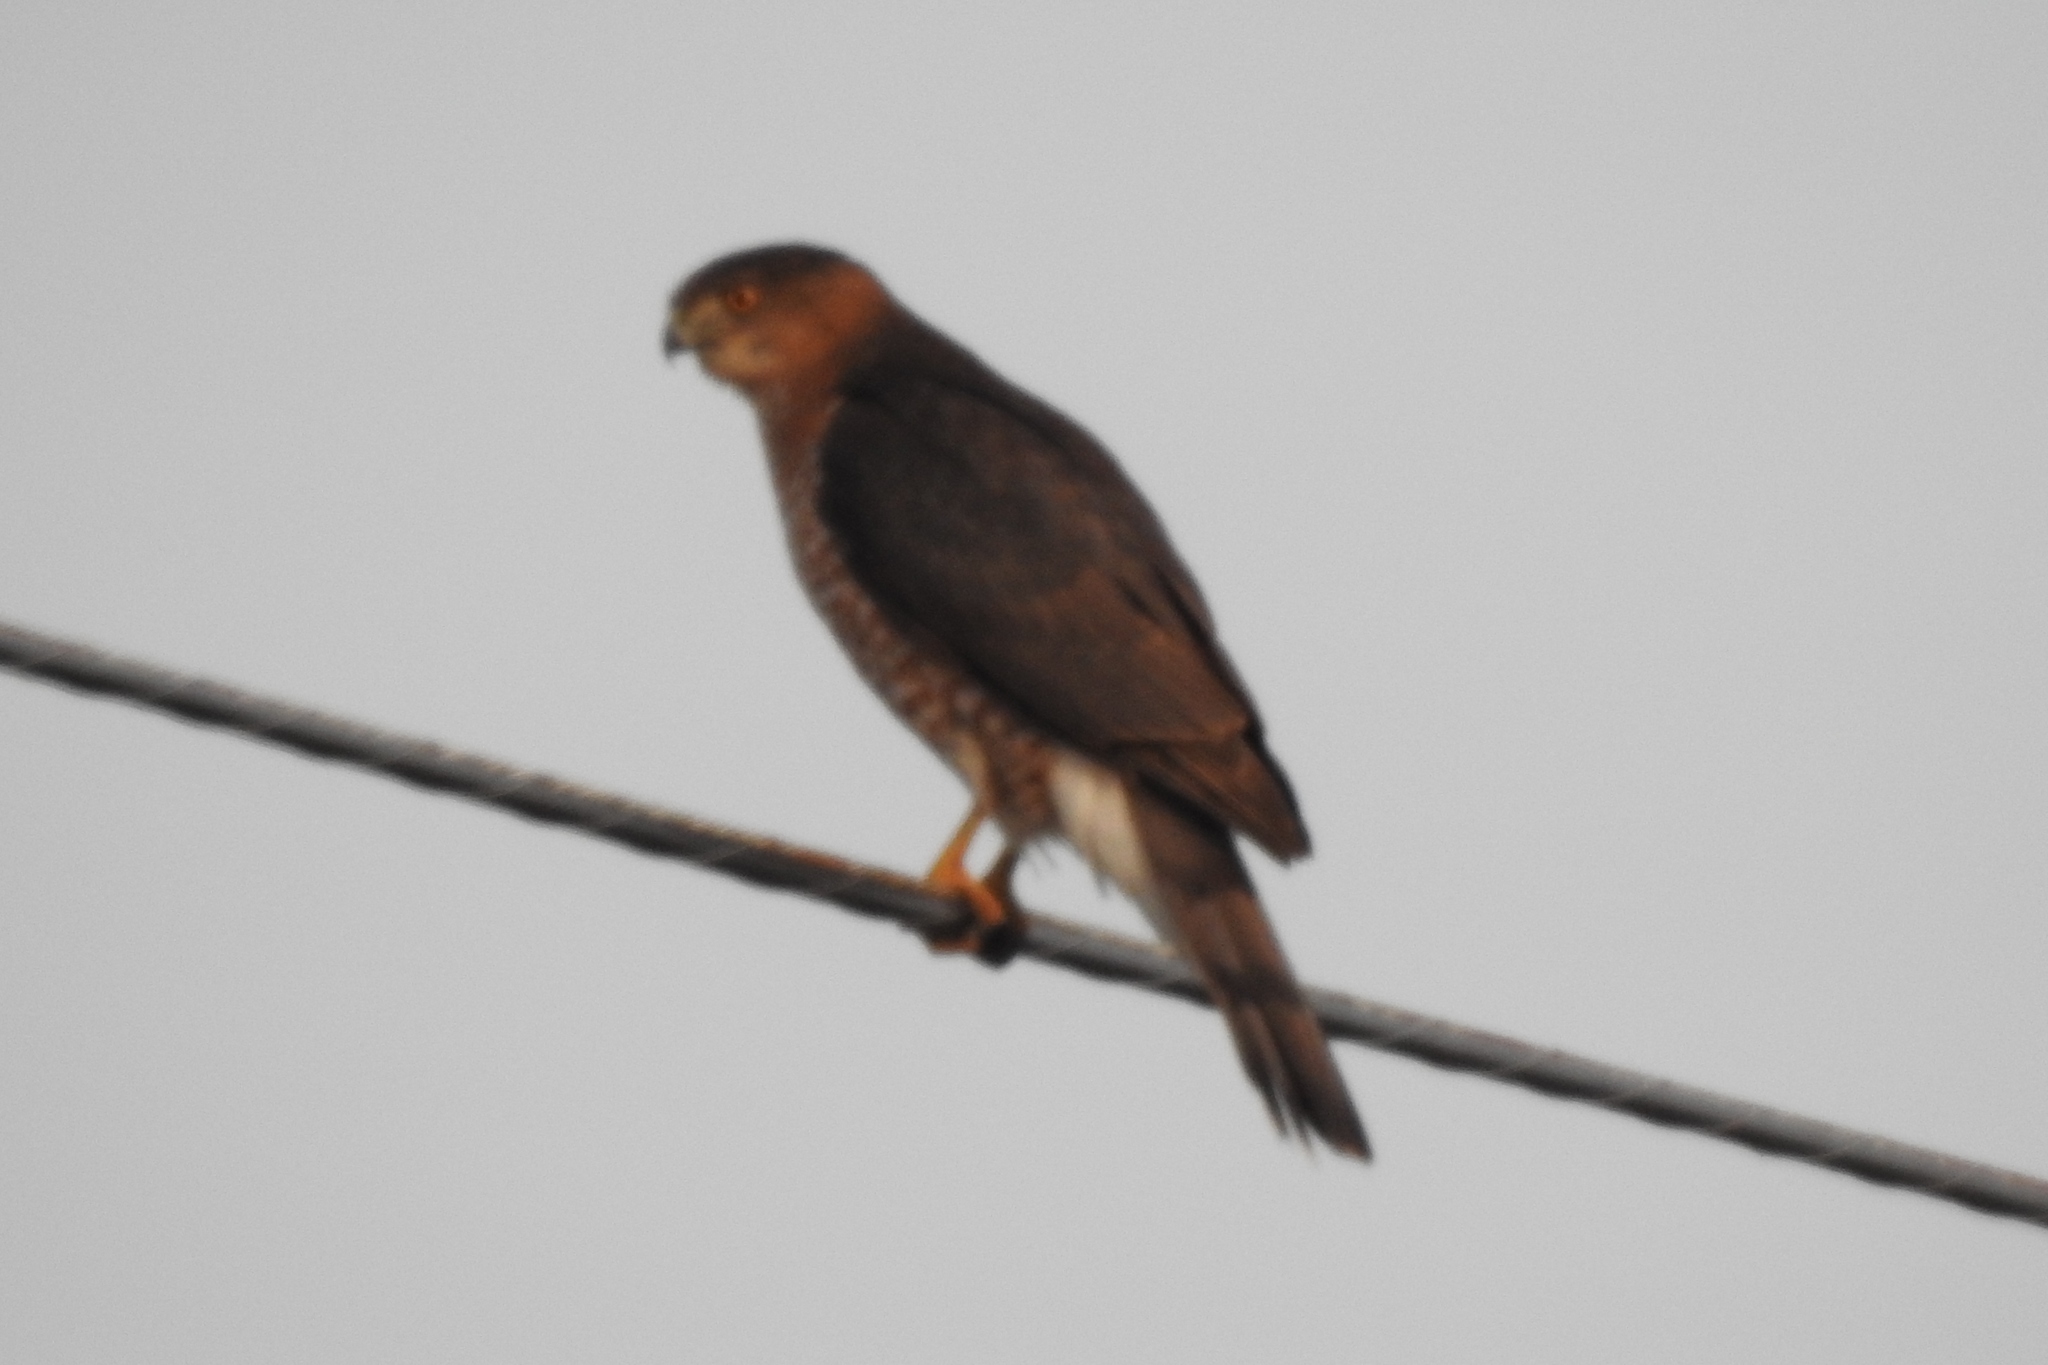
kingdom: Animalia
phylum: Chordata
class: Aves
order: Accipitriformes
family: Accipitridae
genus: Accipiter
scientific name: Accipiter cooperii
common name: Cooper's hawk
